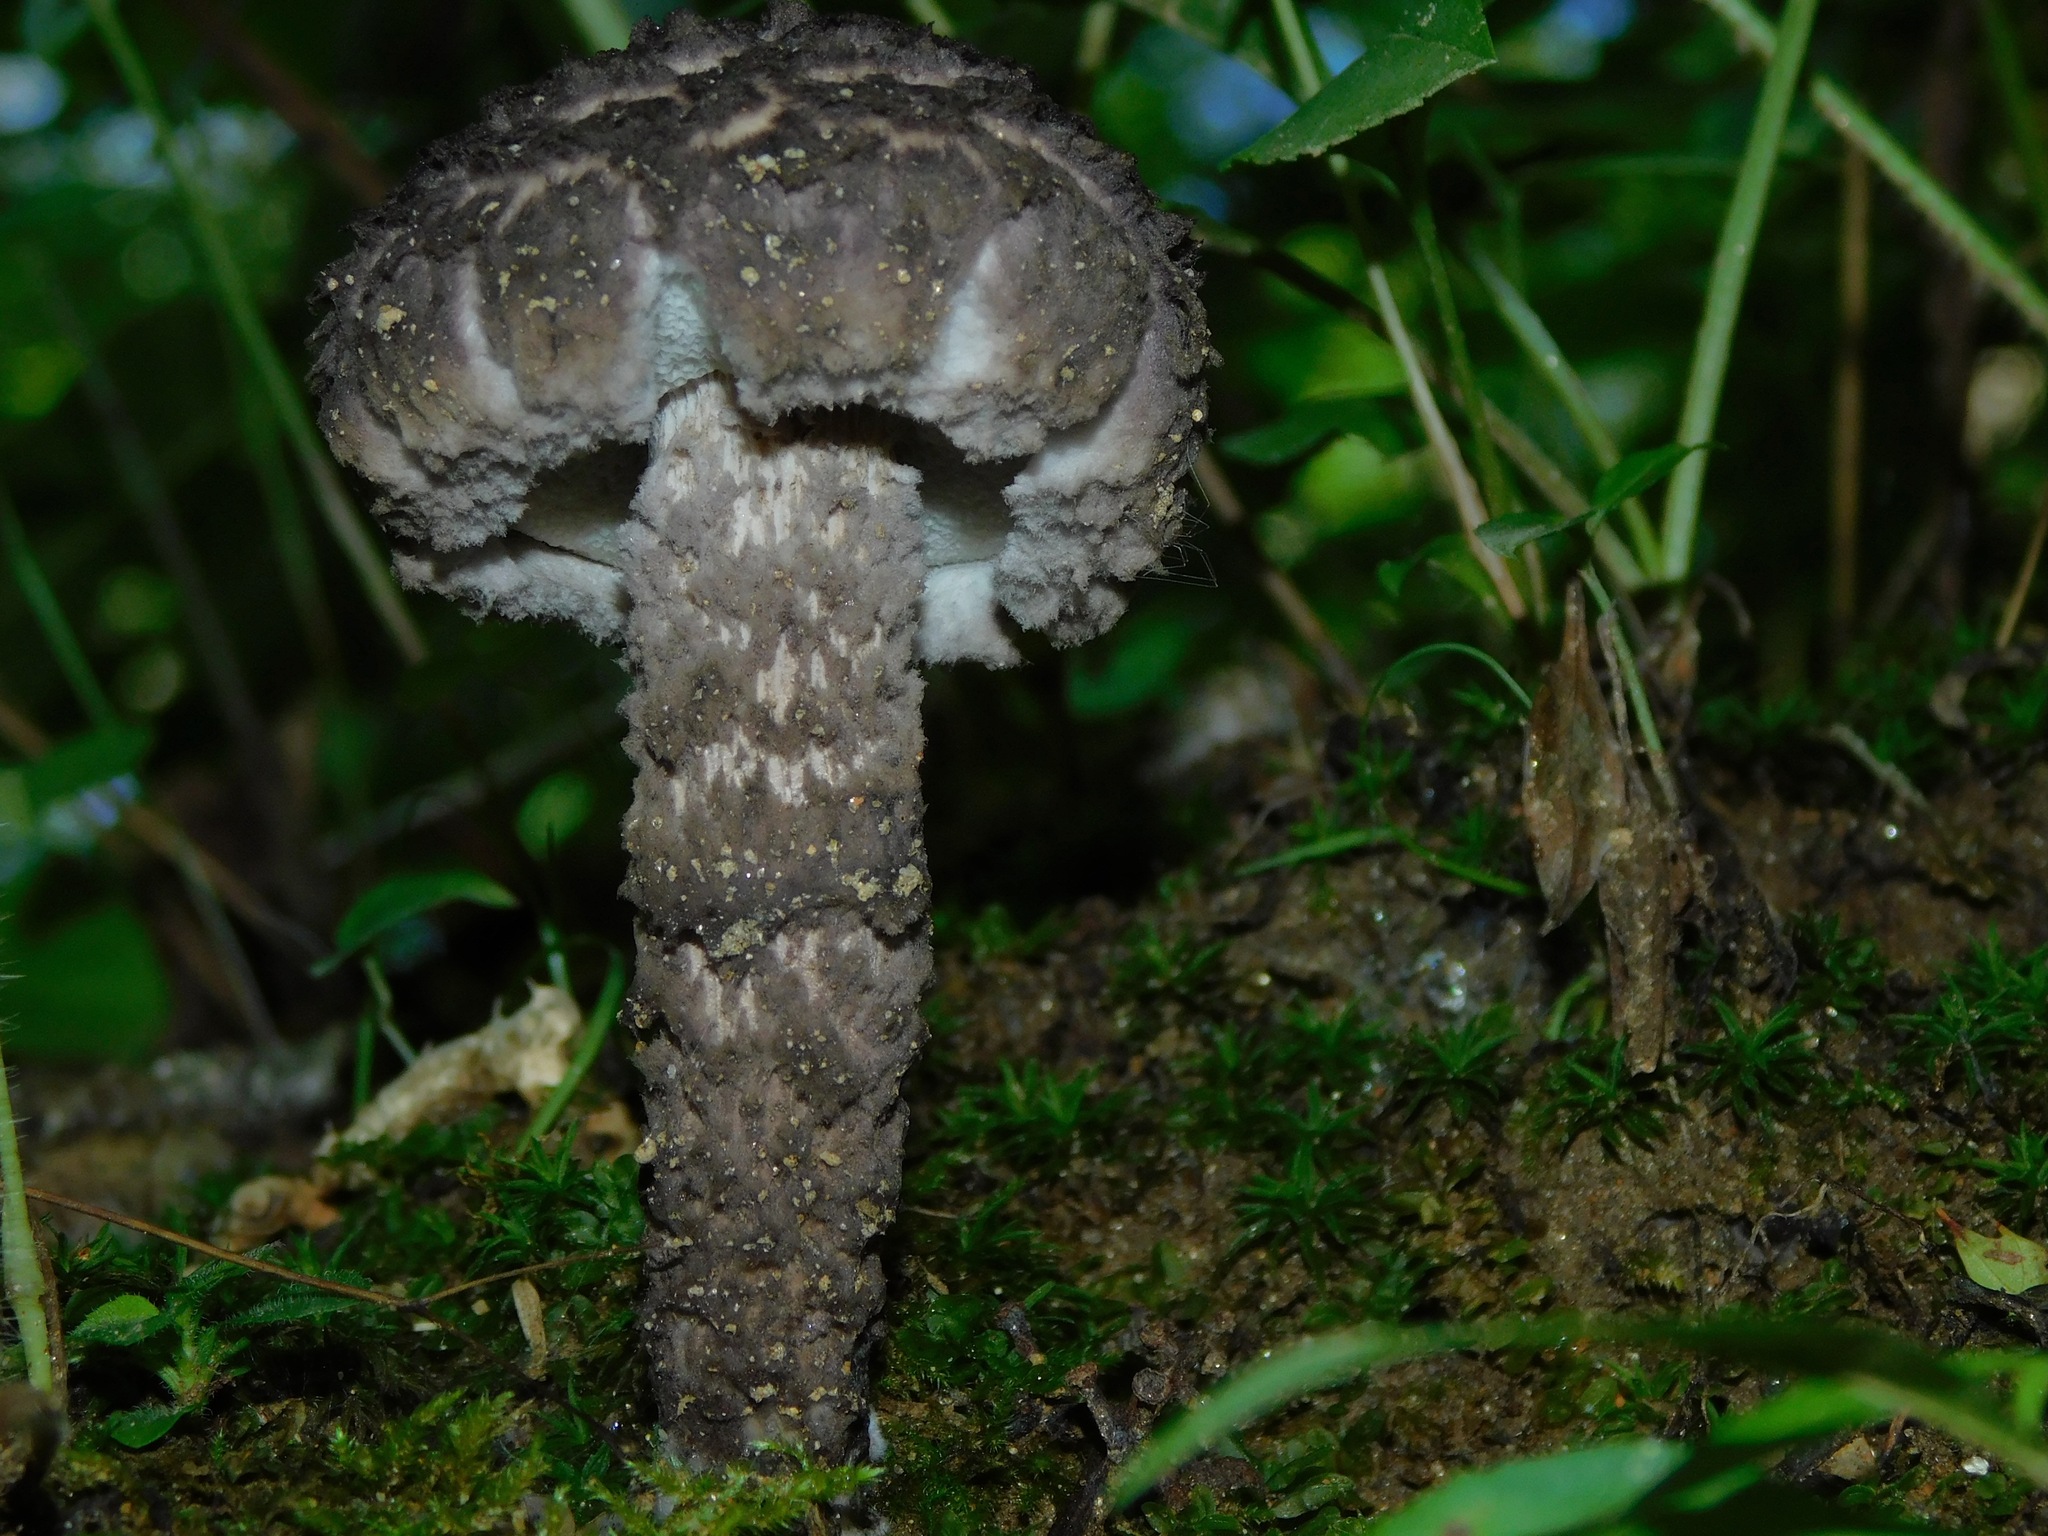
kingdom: Fungi
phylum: Basidiomycota
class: Agaricomycetes
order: Boletales
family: Boletaceae
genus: Strobilomyces
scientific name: Strobilomyces strobilaceus
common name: Old man of the woods
